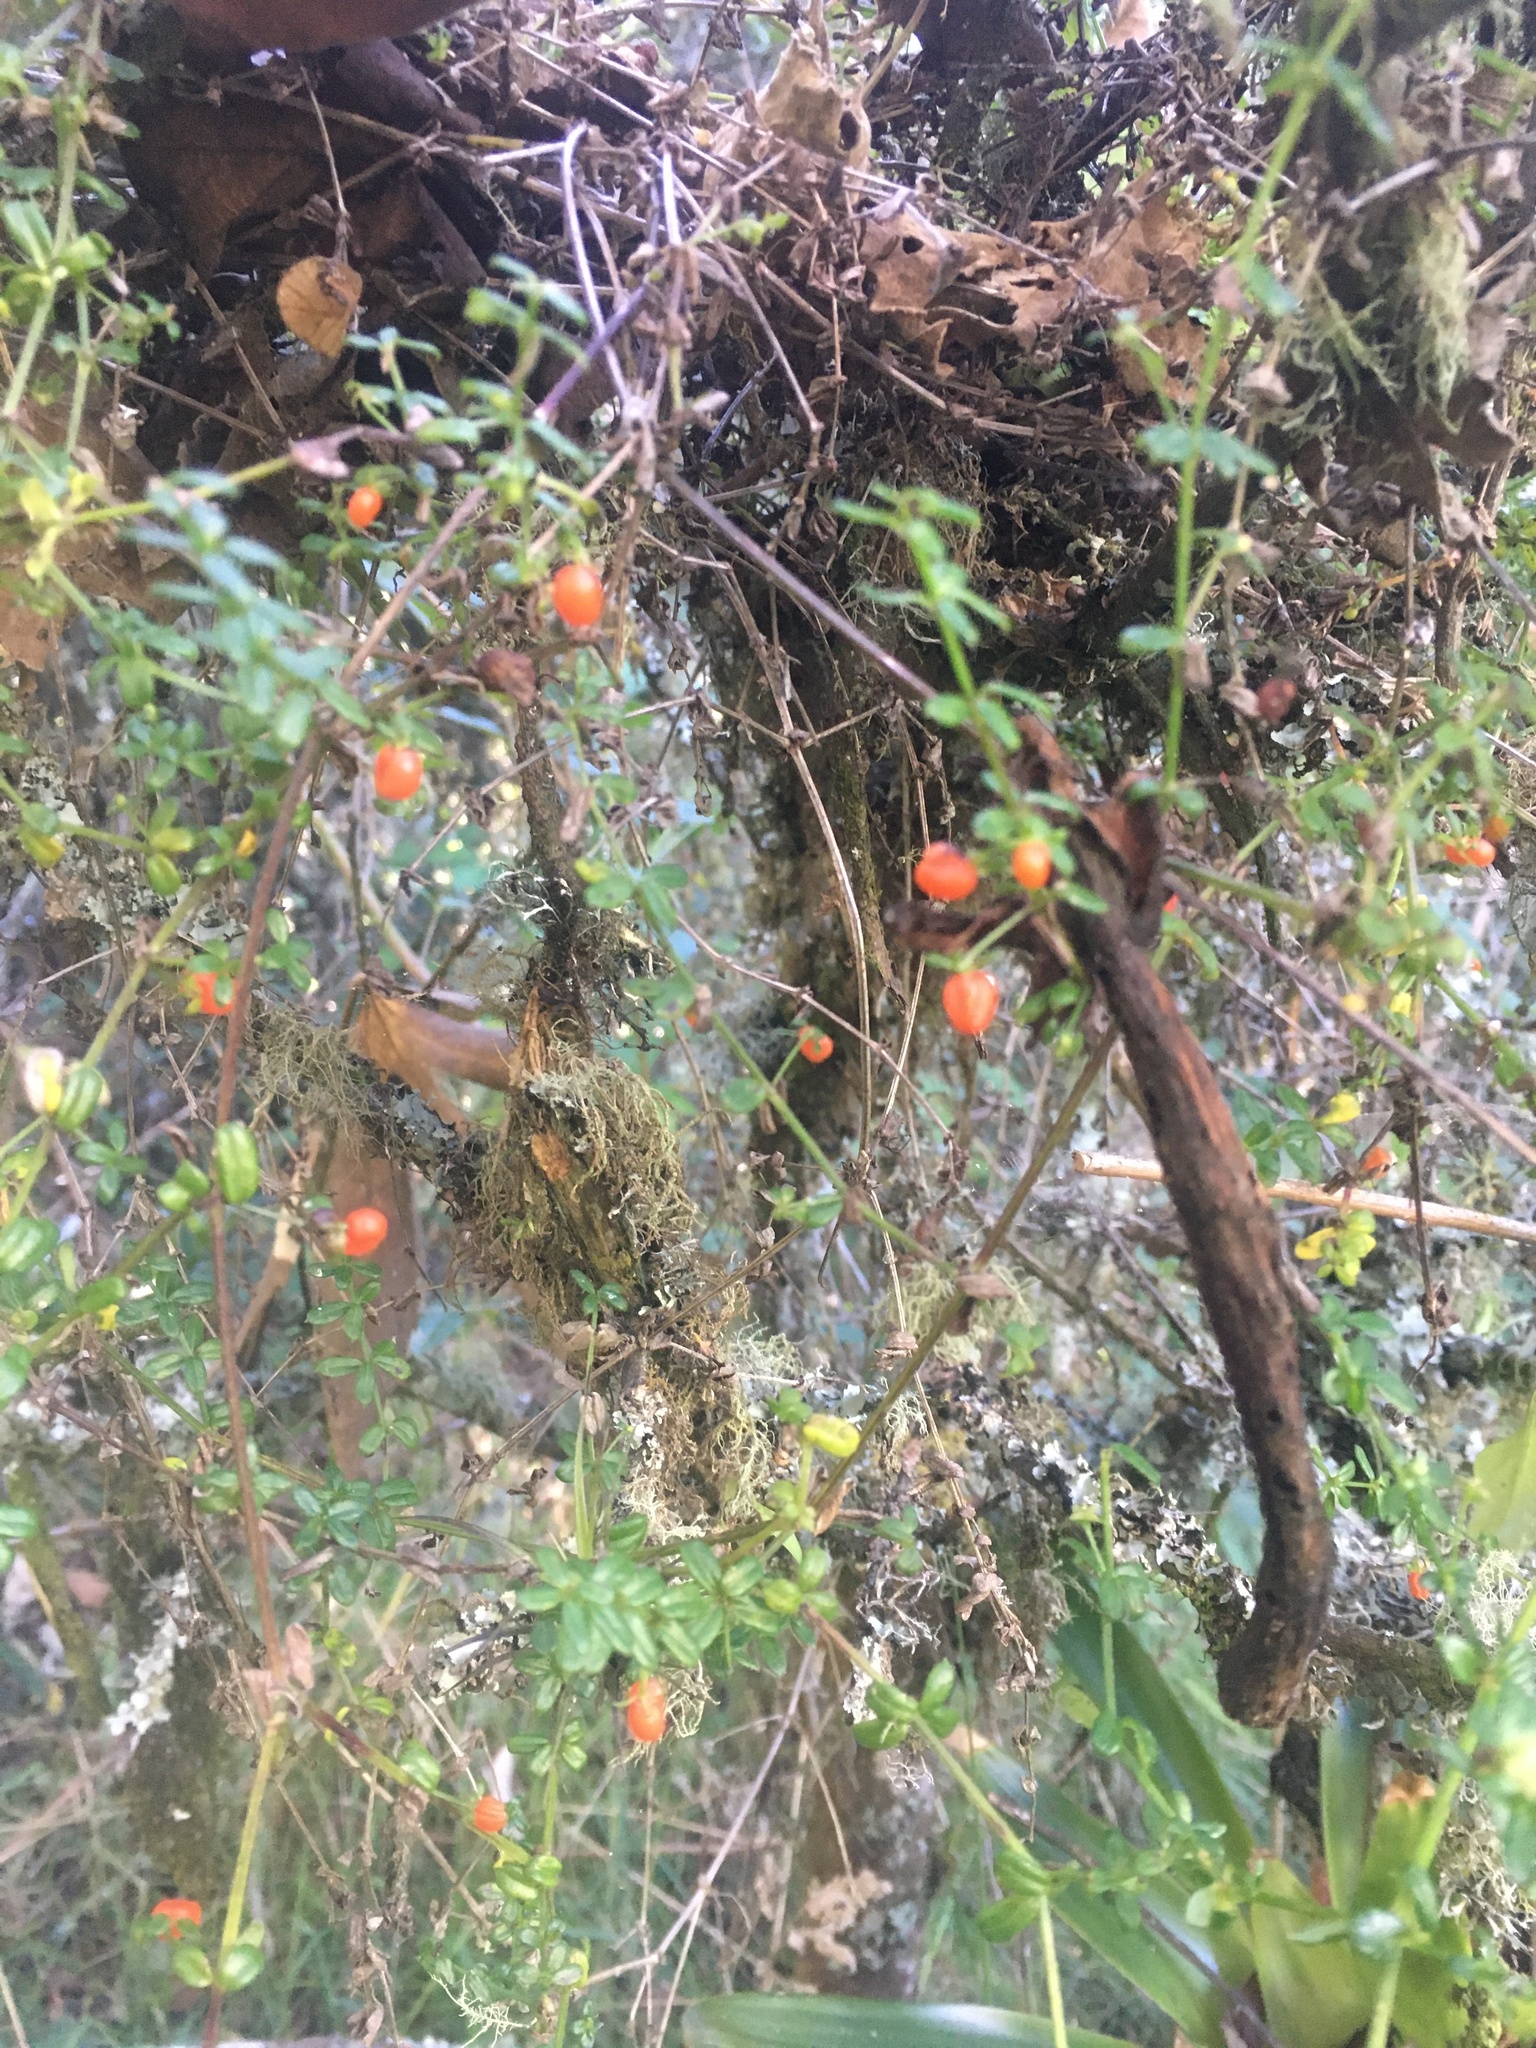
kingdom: Plantae
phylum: Tracheophyta
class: Magnoliopsida
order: Gentianales
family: Rubiaceae
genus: Galium
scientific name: Galium hypocarpium
